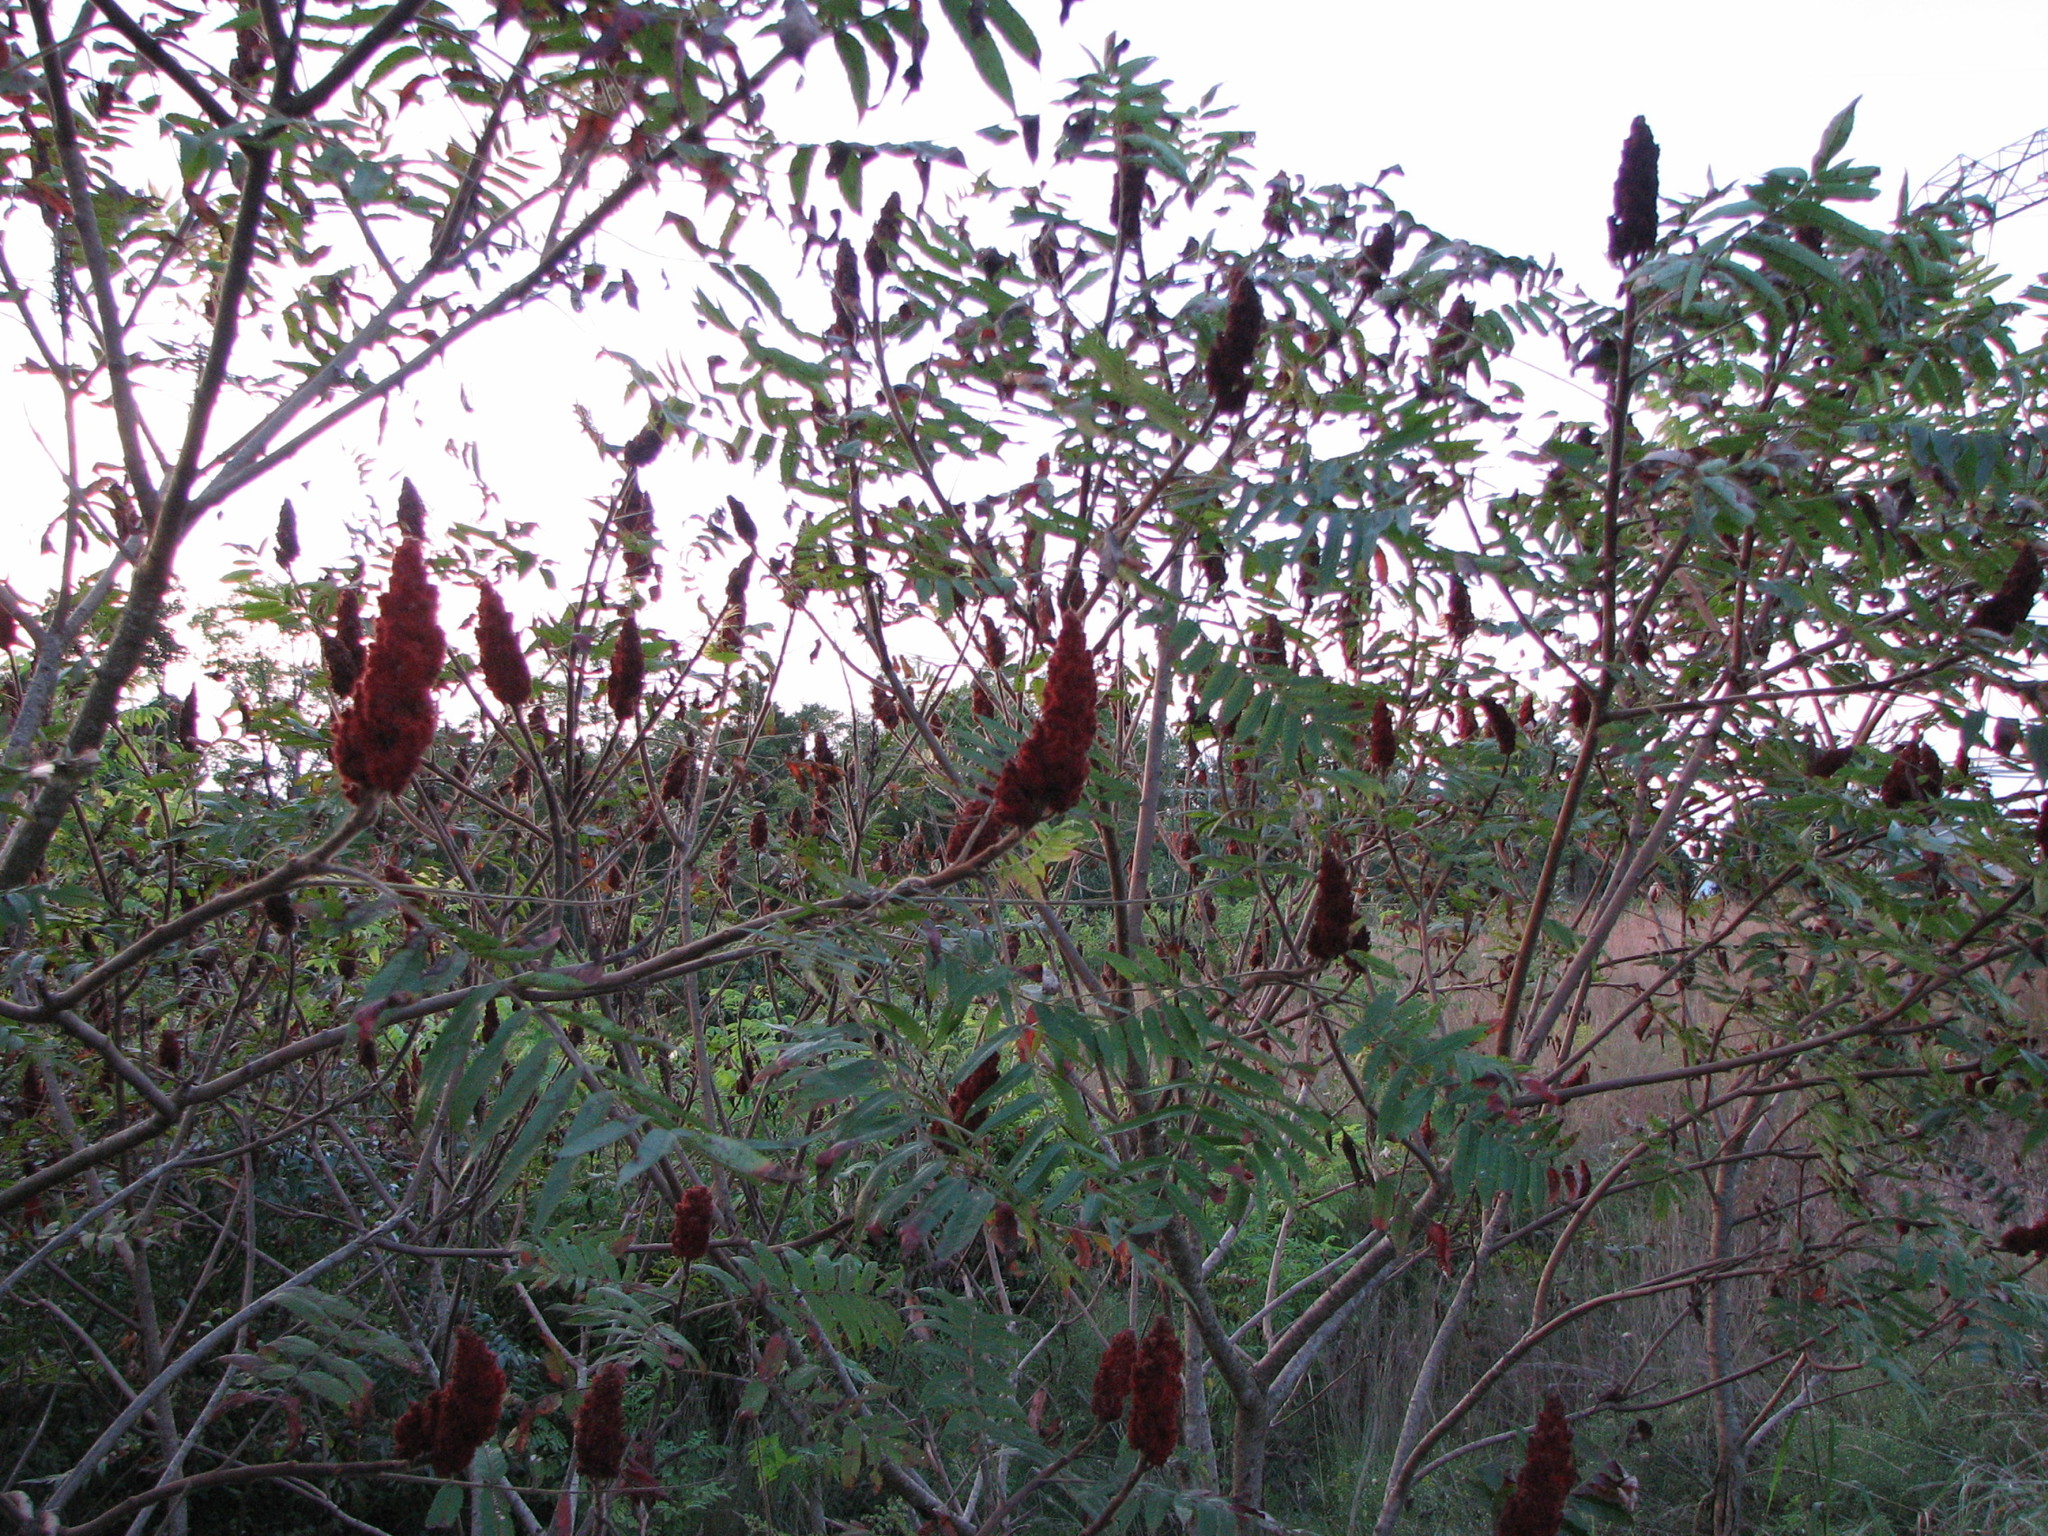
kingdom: Plantae
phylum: Tracheophyta
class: Magnoliopsida
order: Sapindales
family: Anacardiaceae
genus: Rhus
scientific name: Rhus typhina
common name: Staghorn sumac
